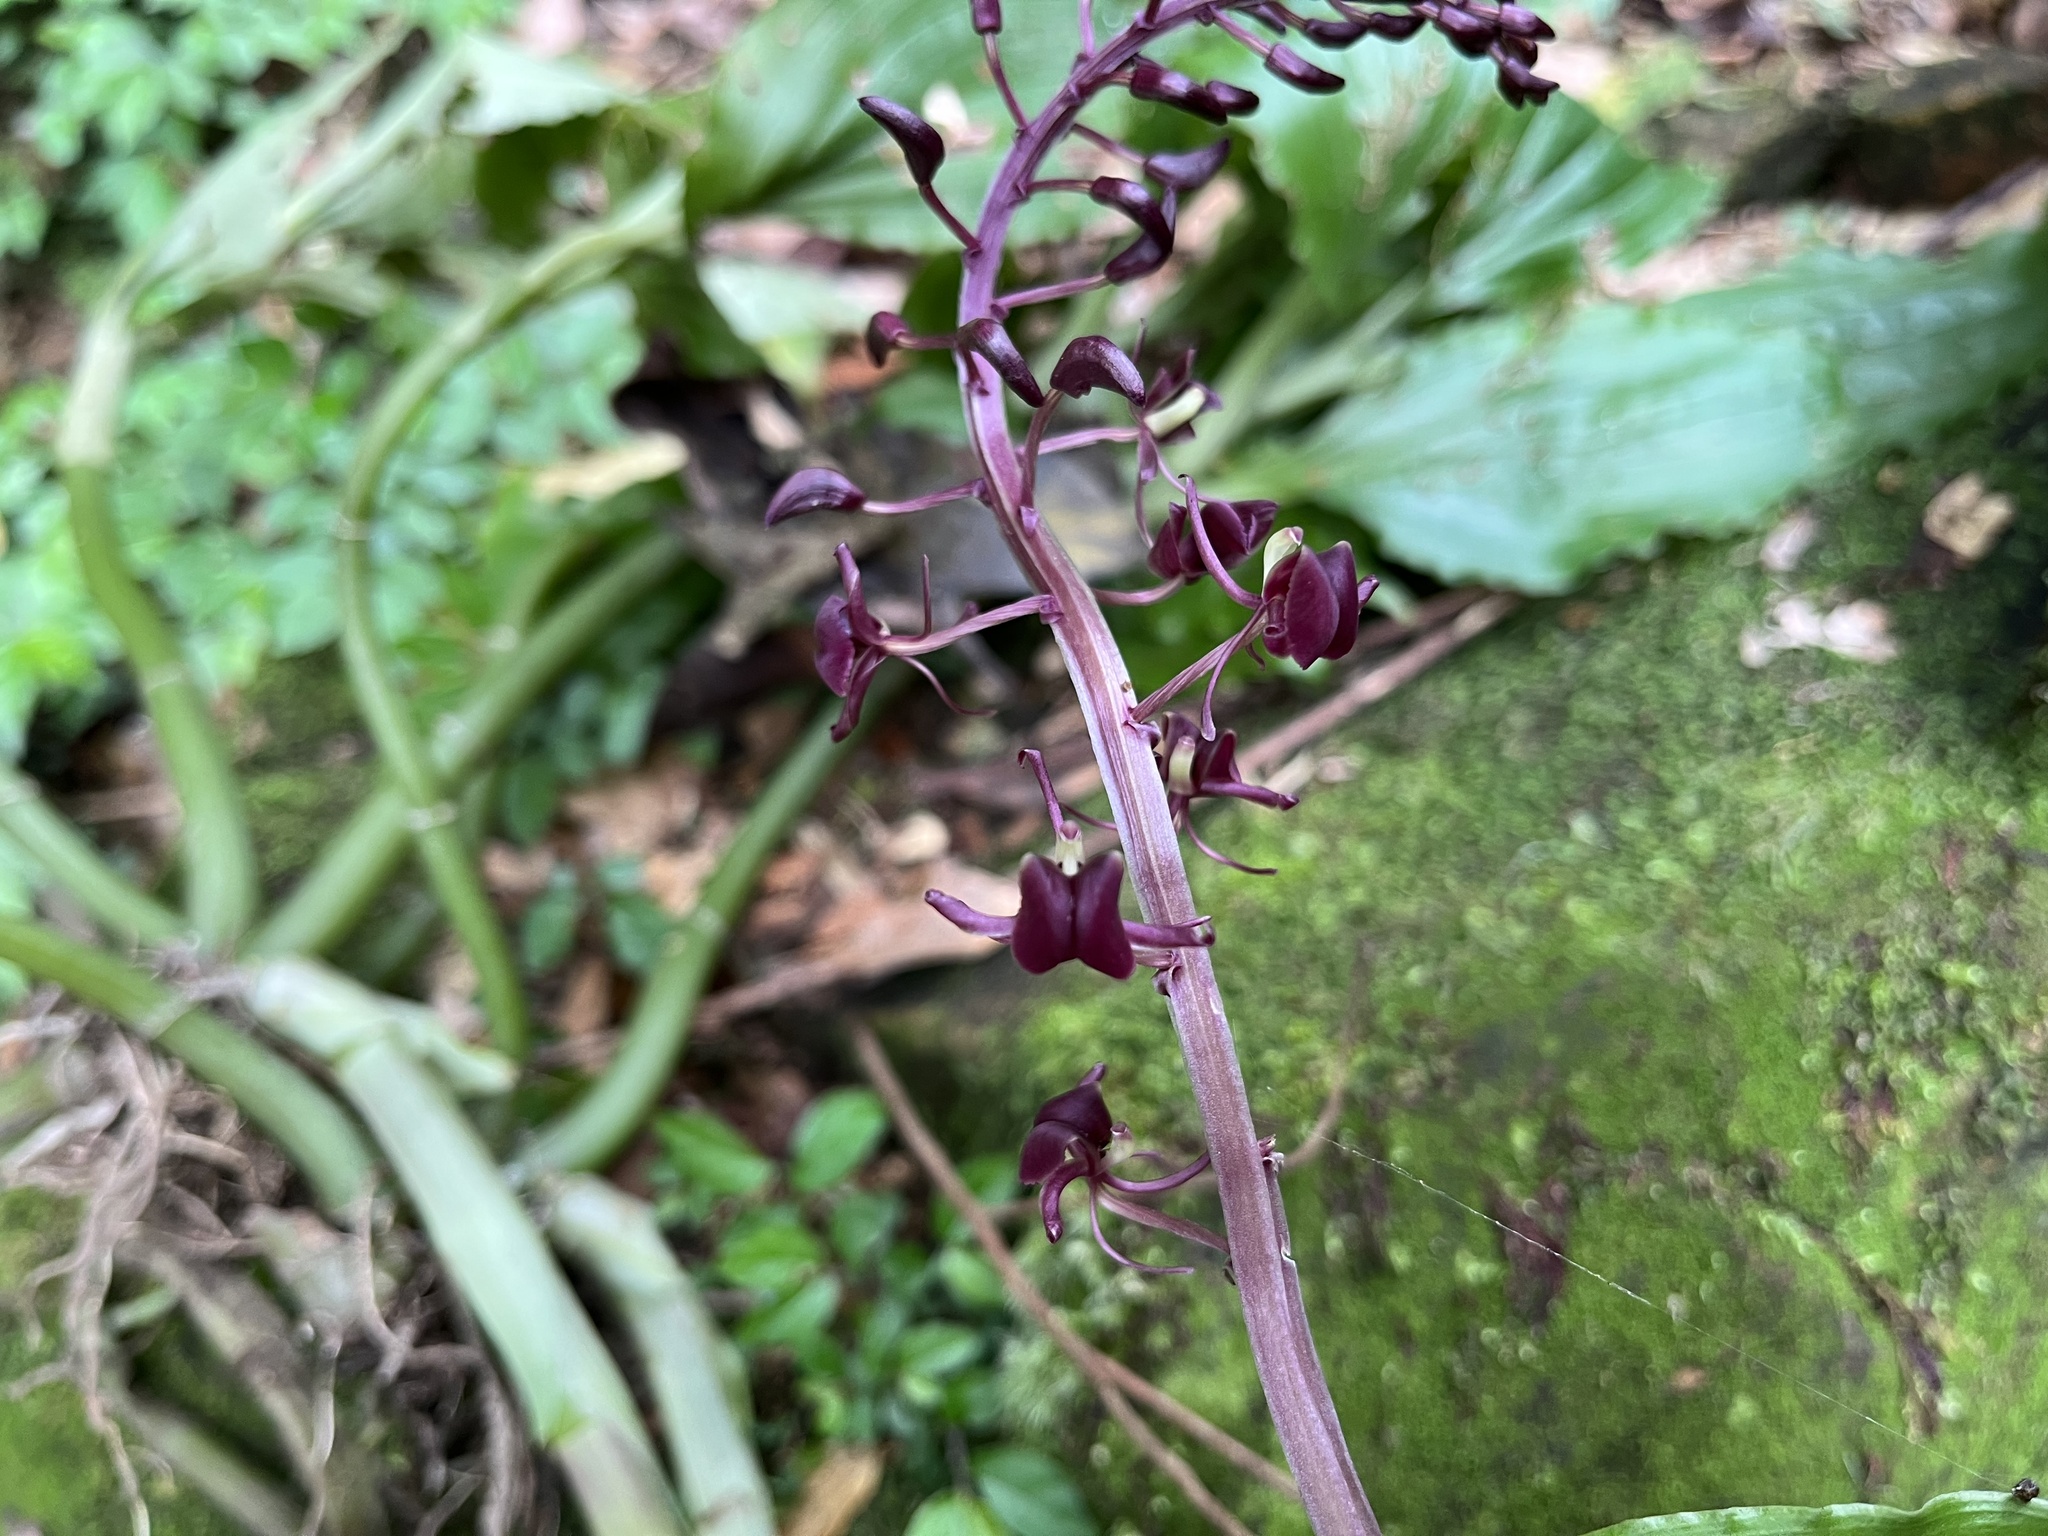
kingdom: Plantae
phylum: Tracheophyta
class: Liliopsida
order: Asparagales
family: Orchidaceae
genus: Liparis
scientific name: Liparis gigantea
